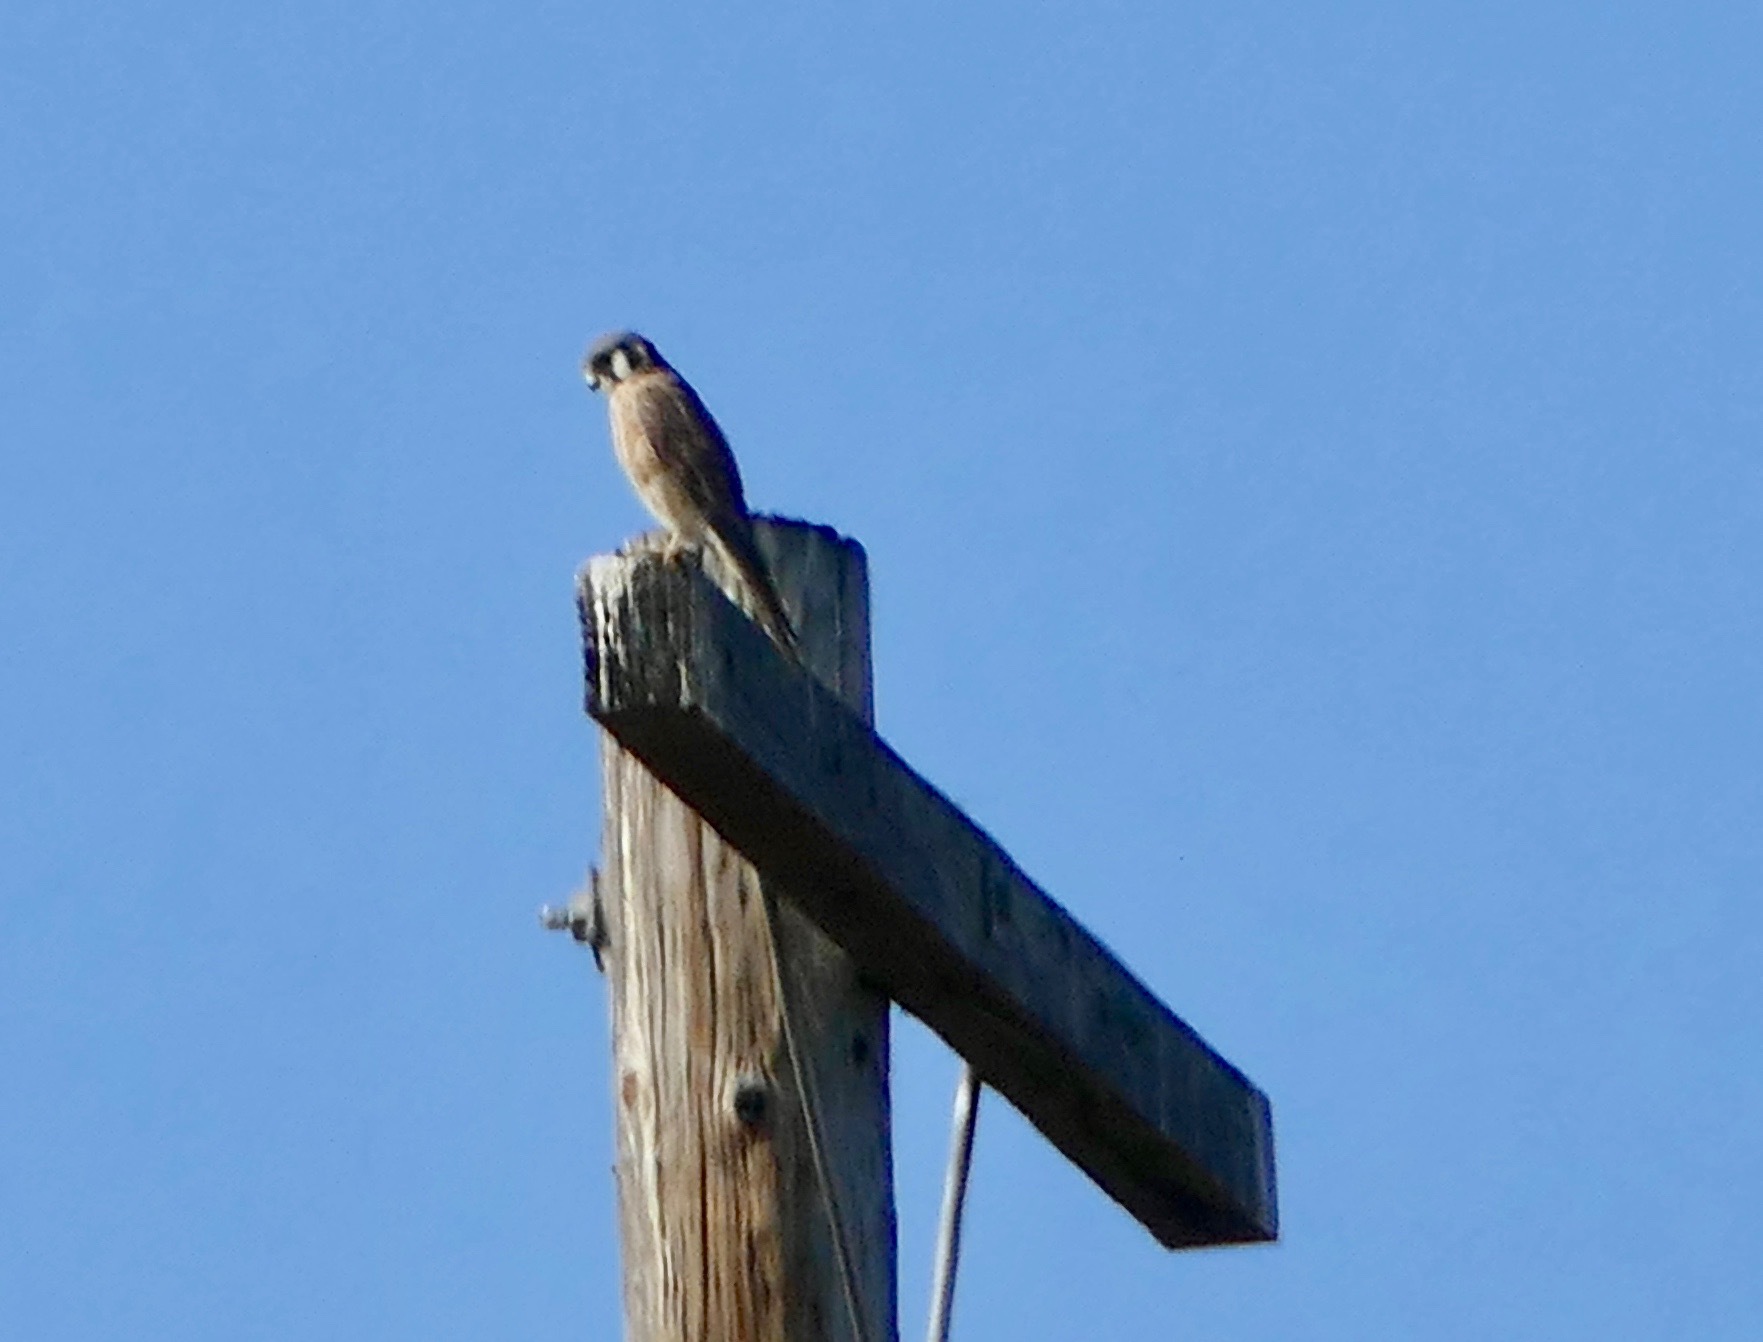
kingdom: Animalia
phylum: Chordata
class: Aves
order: Falconiformes
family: Falconidae
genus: Falco
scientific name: Falco sparverius
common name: American kestrel
